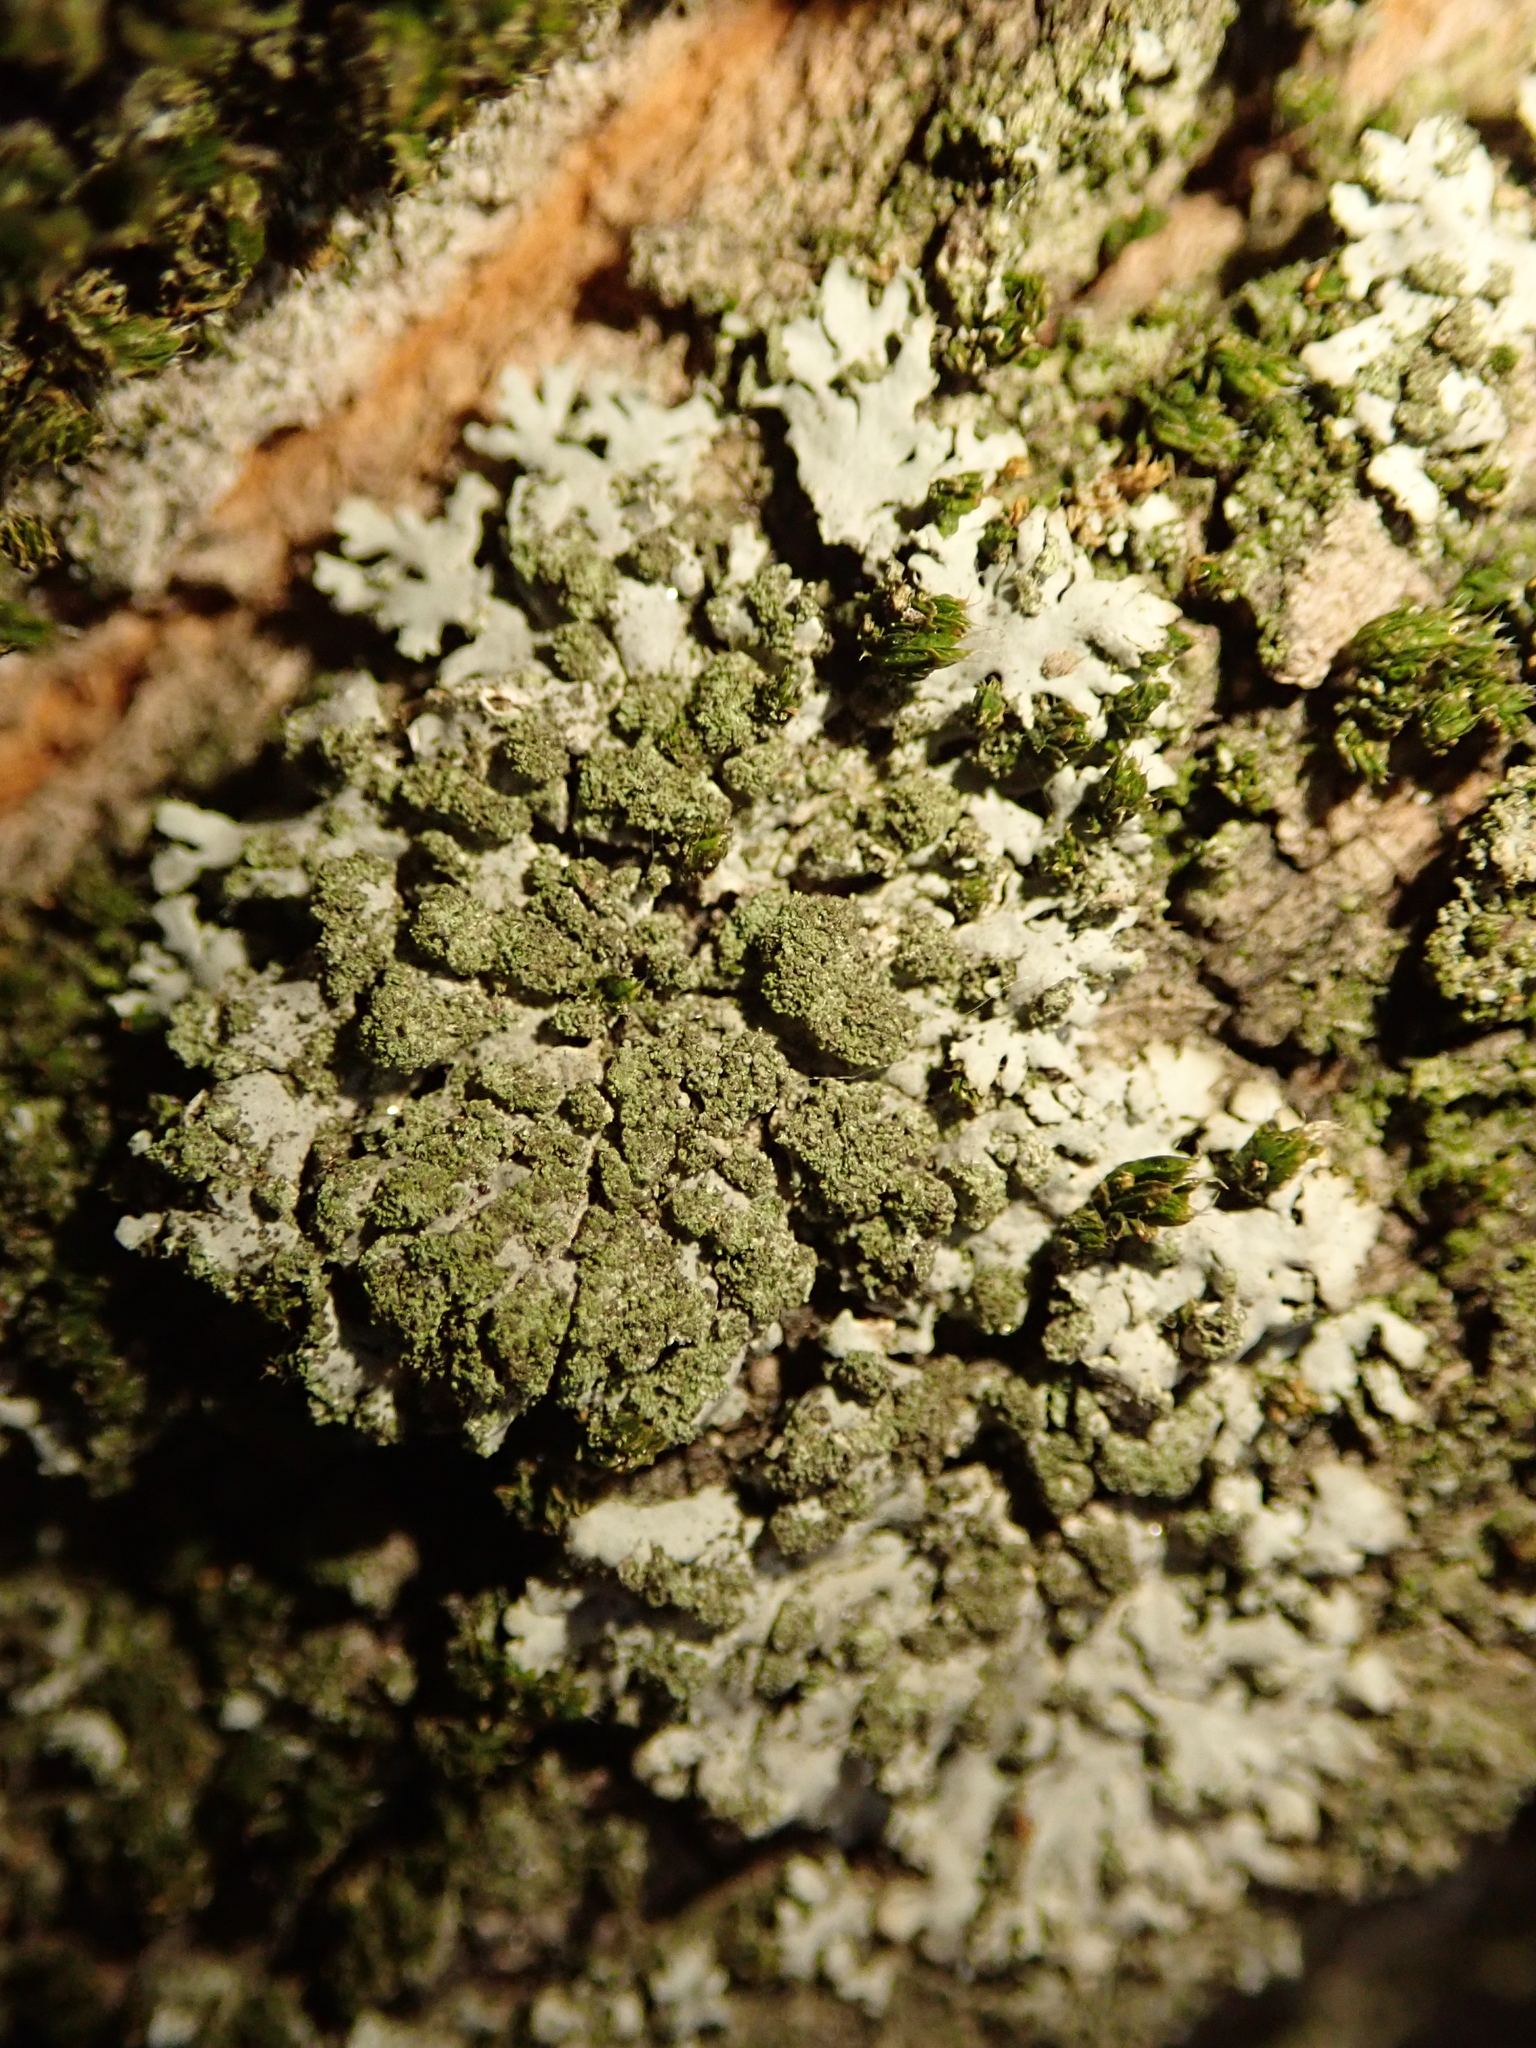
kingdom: Fungi
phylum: Ascomycota
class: Lecanoromycetes
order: Caliciales
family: Physciaceae
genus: Phaeophyscia
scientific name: Phaeophyscia orbicularis
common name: Mealy shadow lichen
